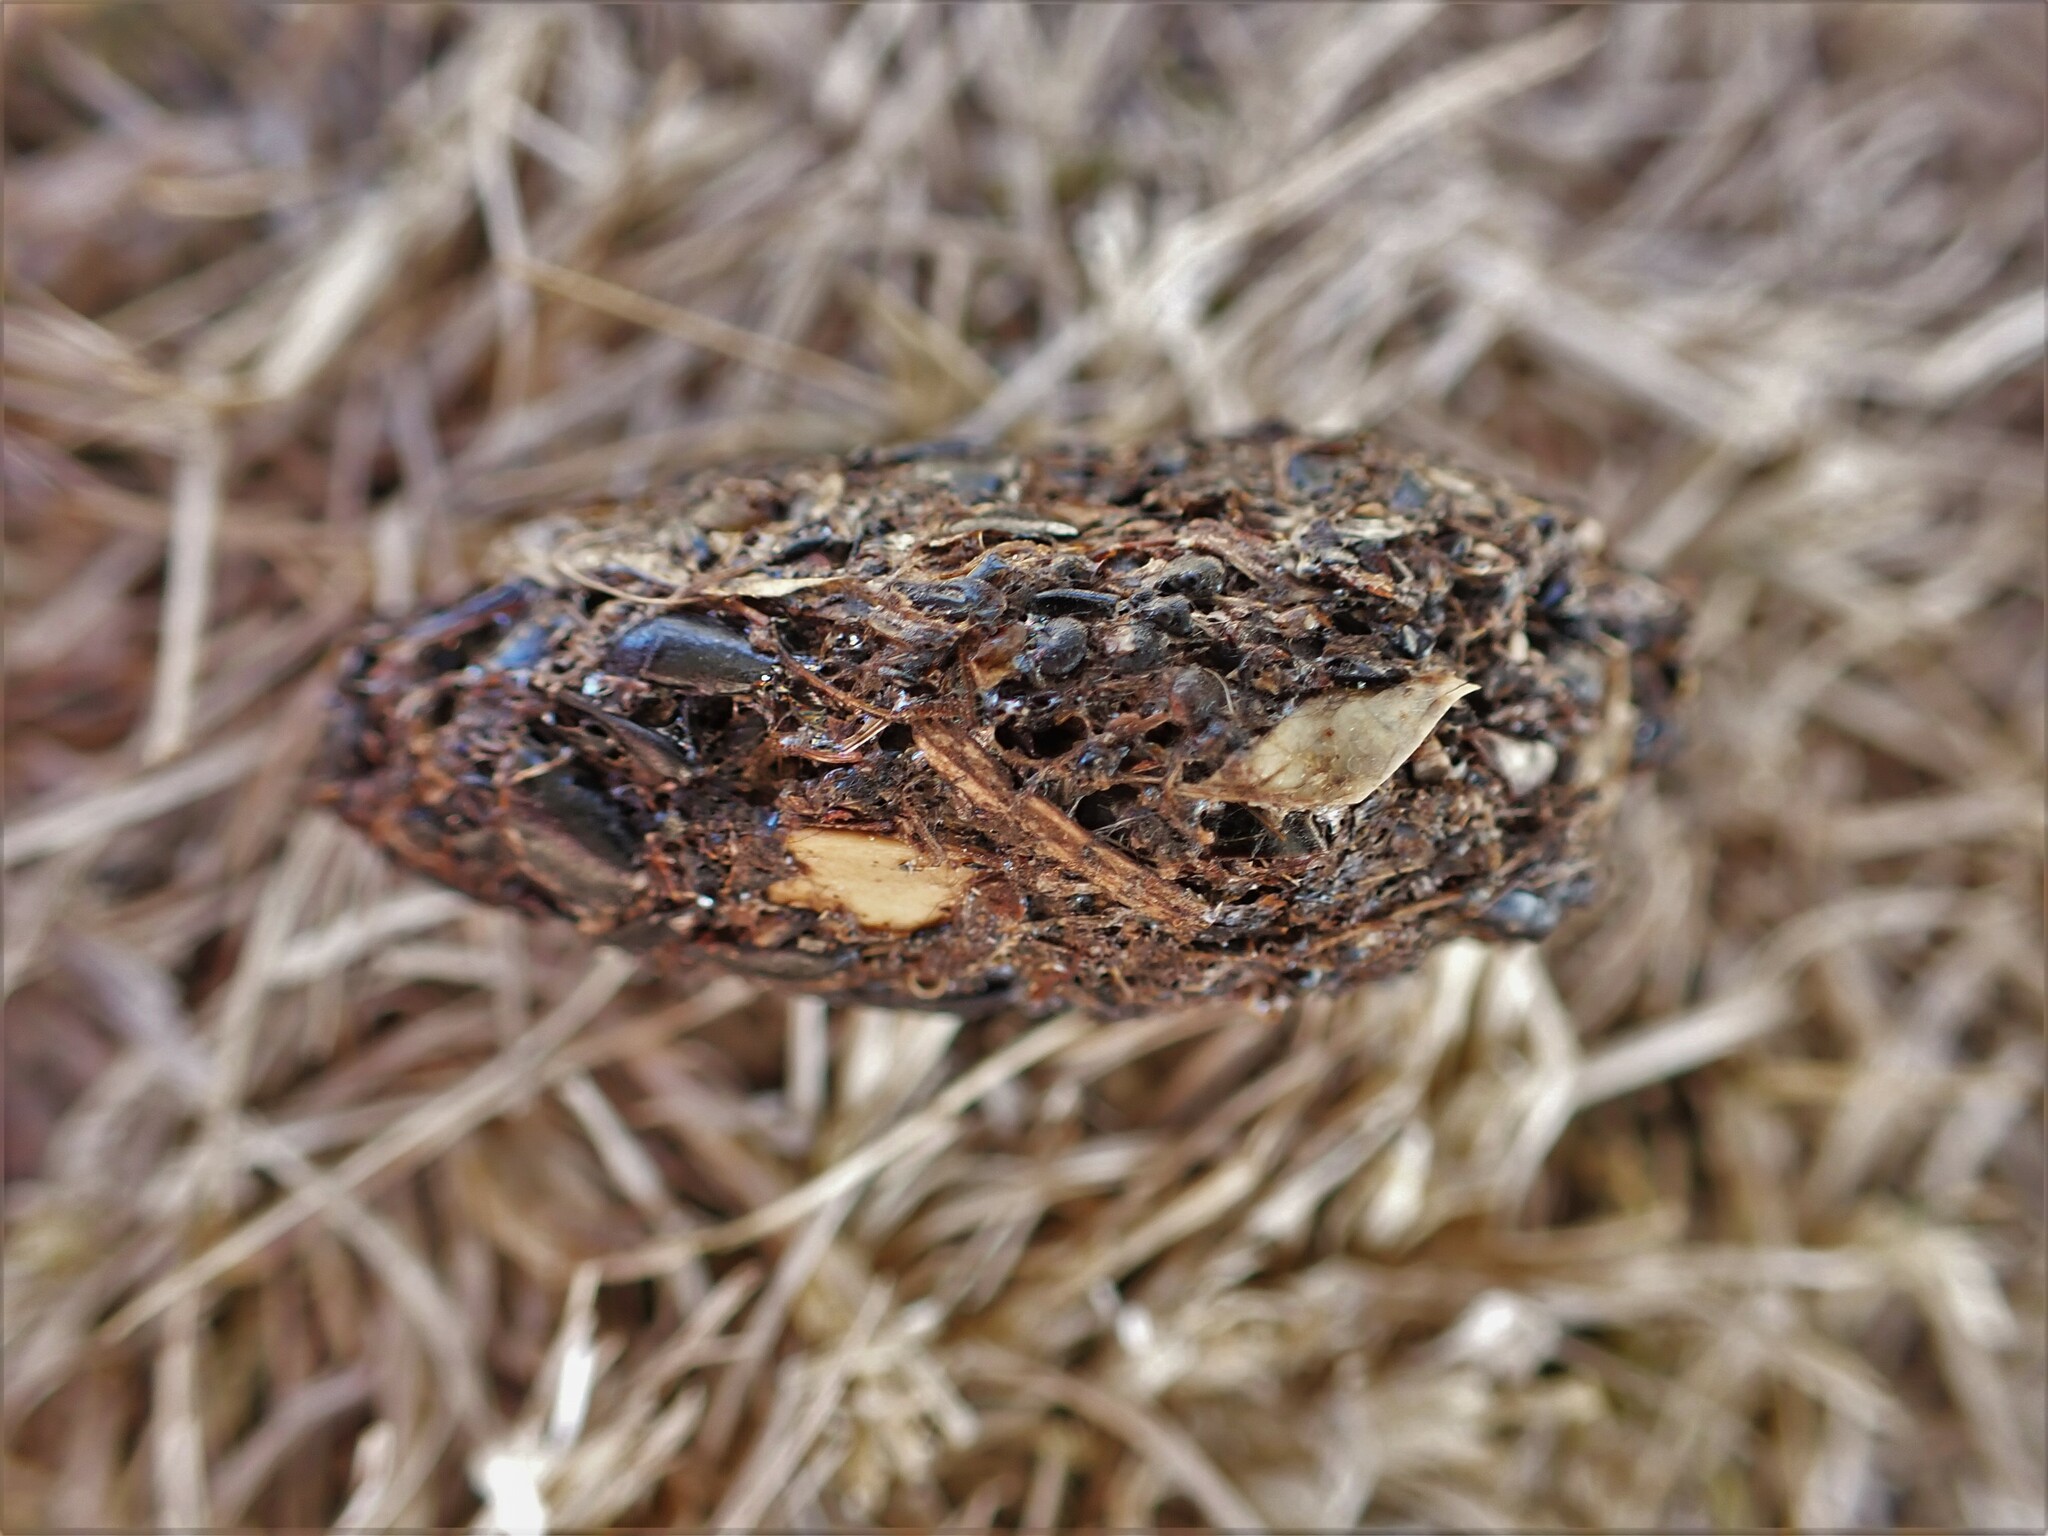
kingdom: Animalia
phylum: Chordata
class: Mammalia
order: Erinaceomorpha
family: Erinaceidae
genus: Erinaceus
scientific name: Erinaceus europaeus
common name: West european hedgehog
